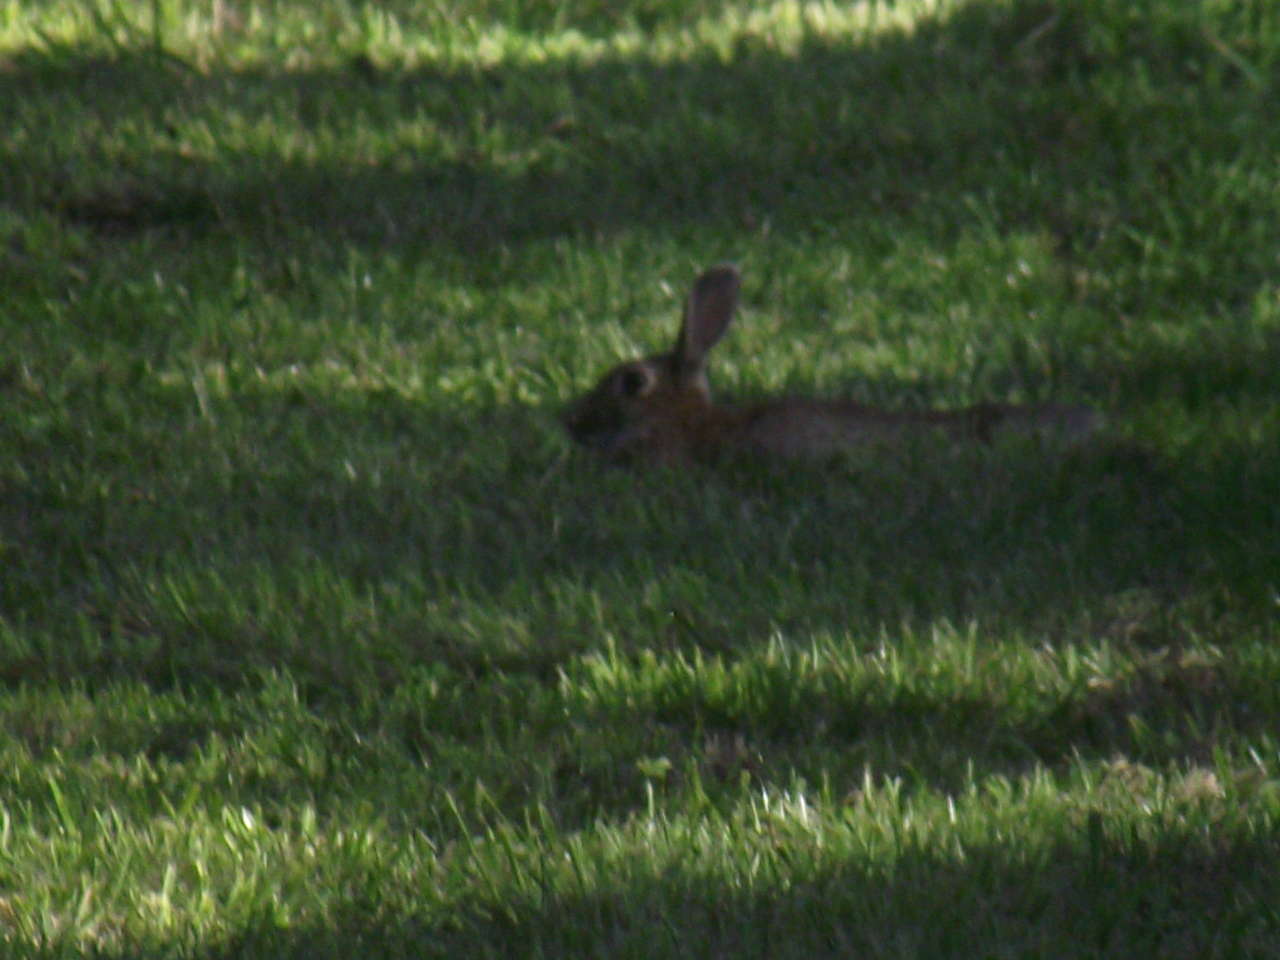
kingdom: Animalia
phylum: Chordata
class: Mammalia
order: Lagomorpha
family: Leporidae
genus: Oryctolagus
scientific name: Oryctolagus cuniculus
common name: European rabbit
